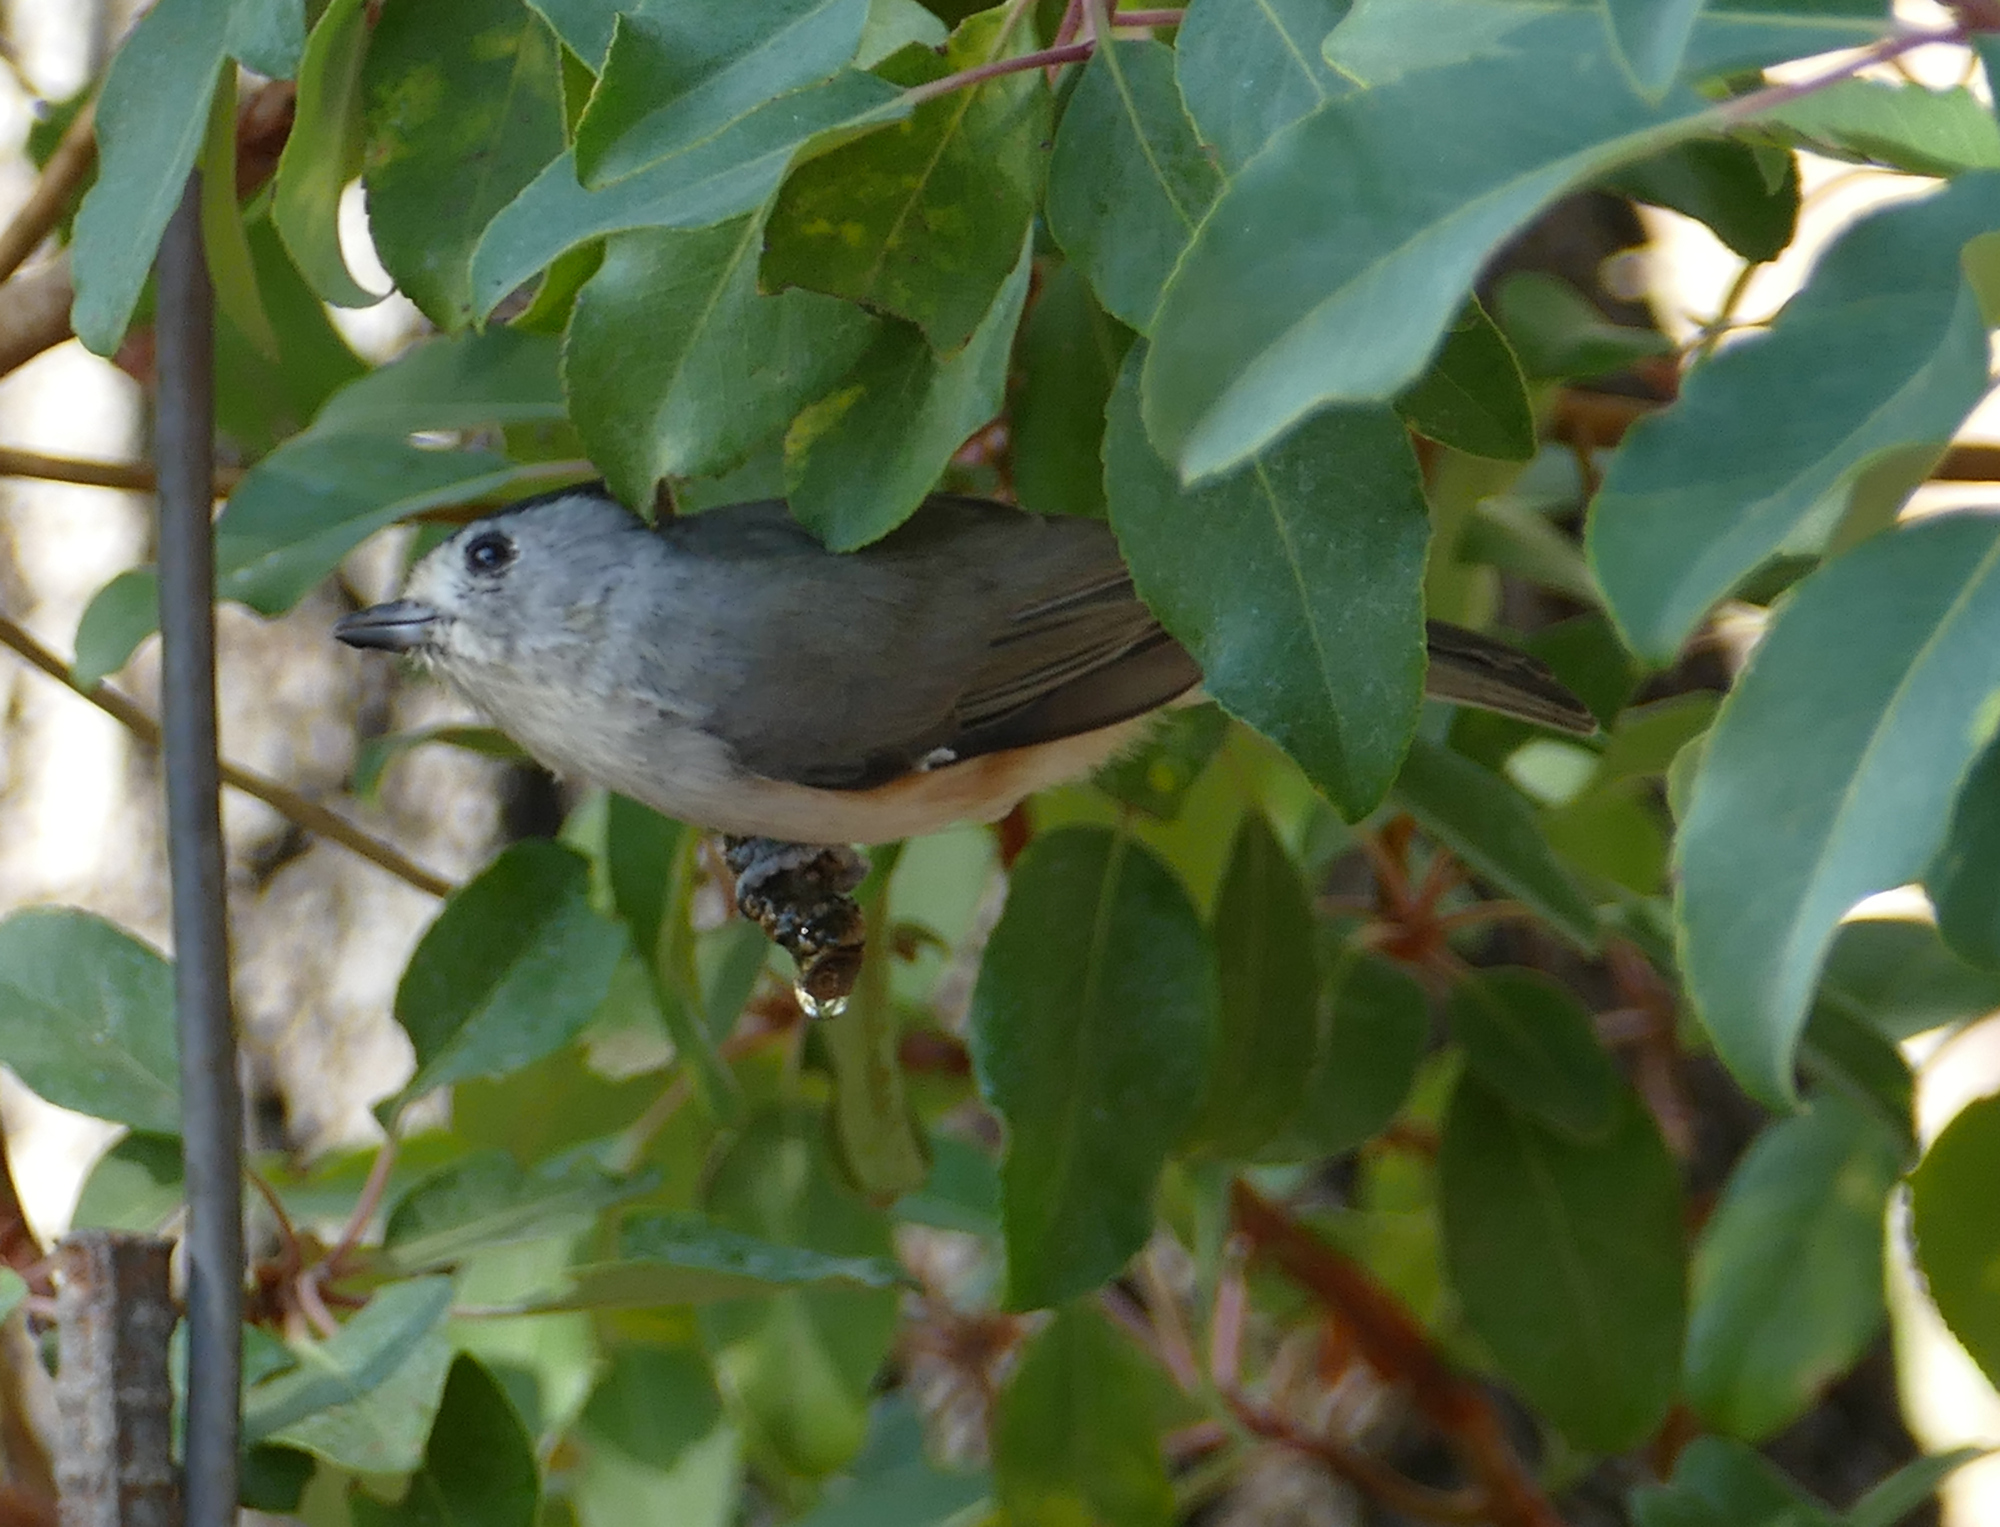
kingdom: Animalia
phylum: Chordata
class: Aves
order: Passeriformes
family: Paridae
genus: Baeolophus
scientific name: Baeolophus atricristatus
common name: Black-crested titmouse
